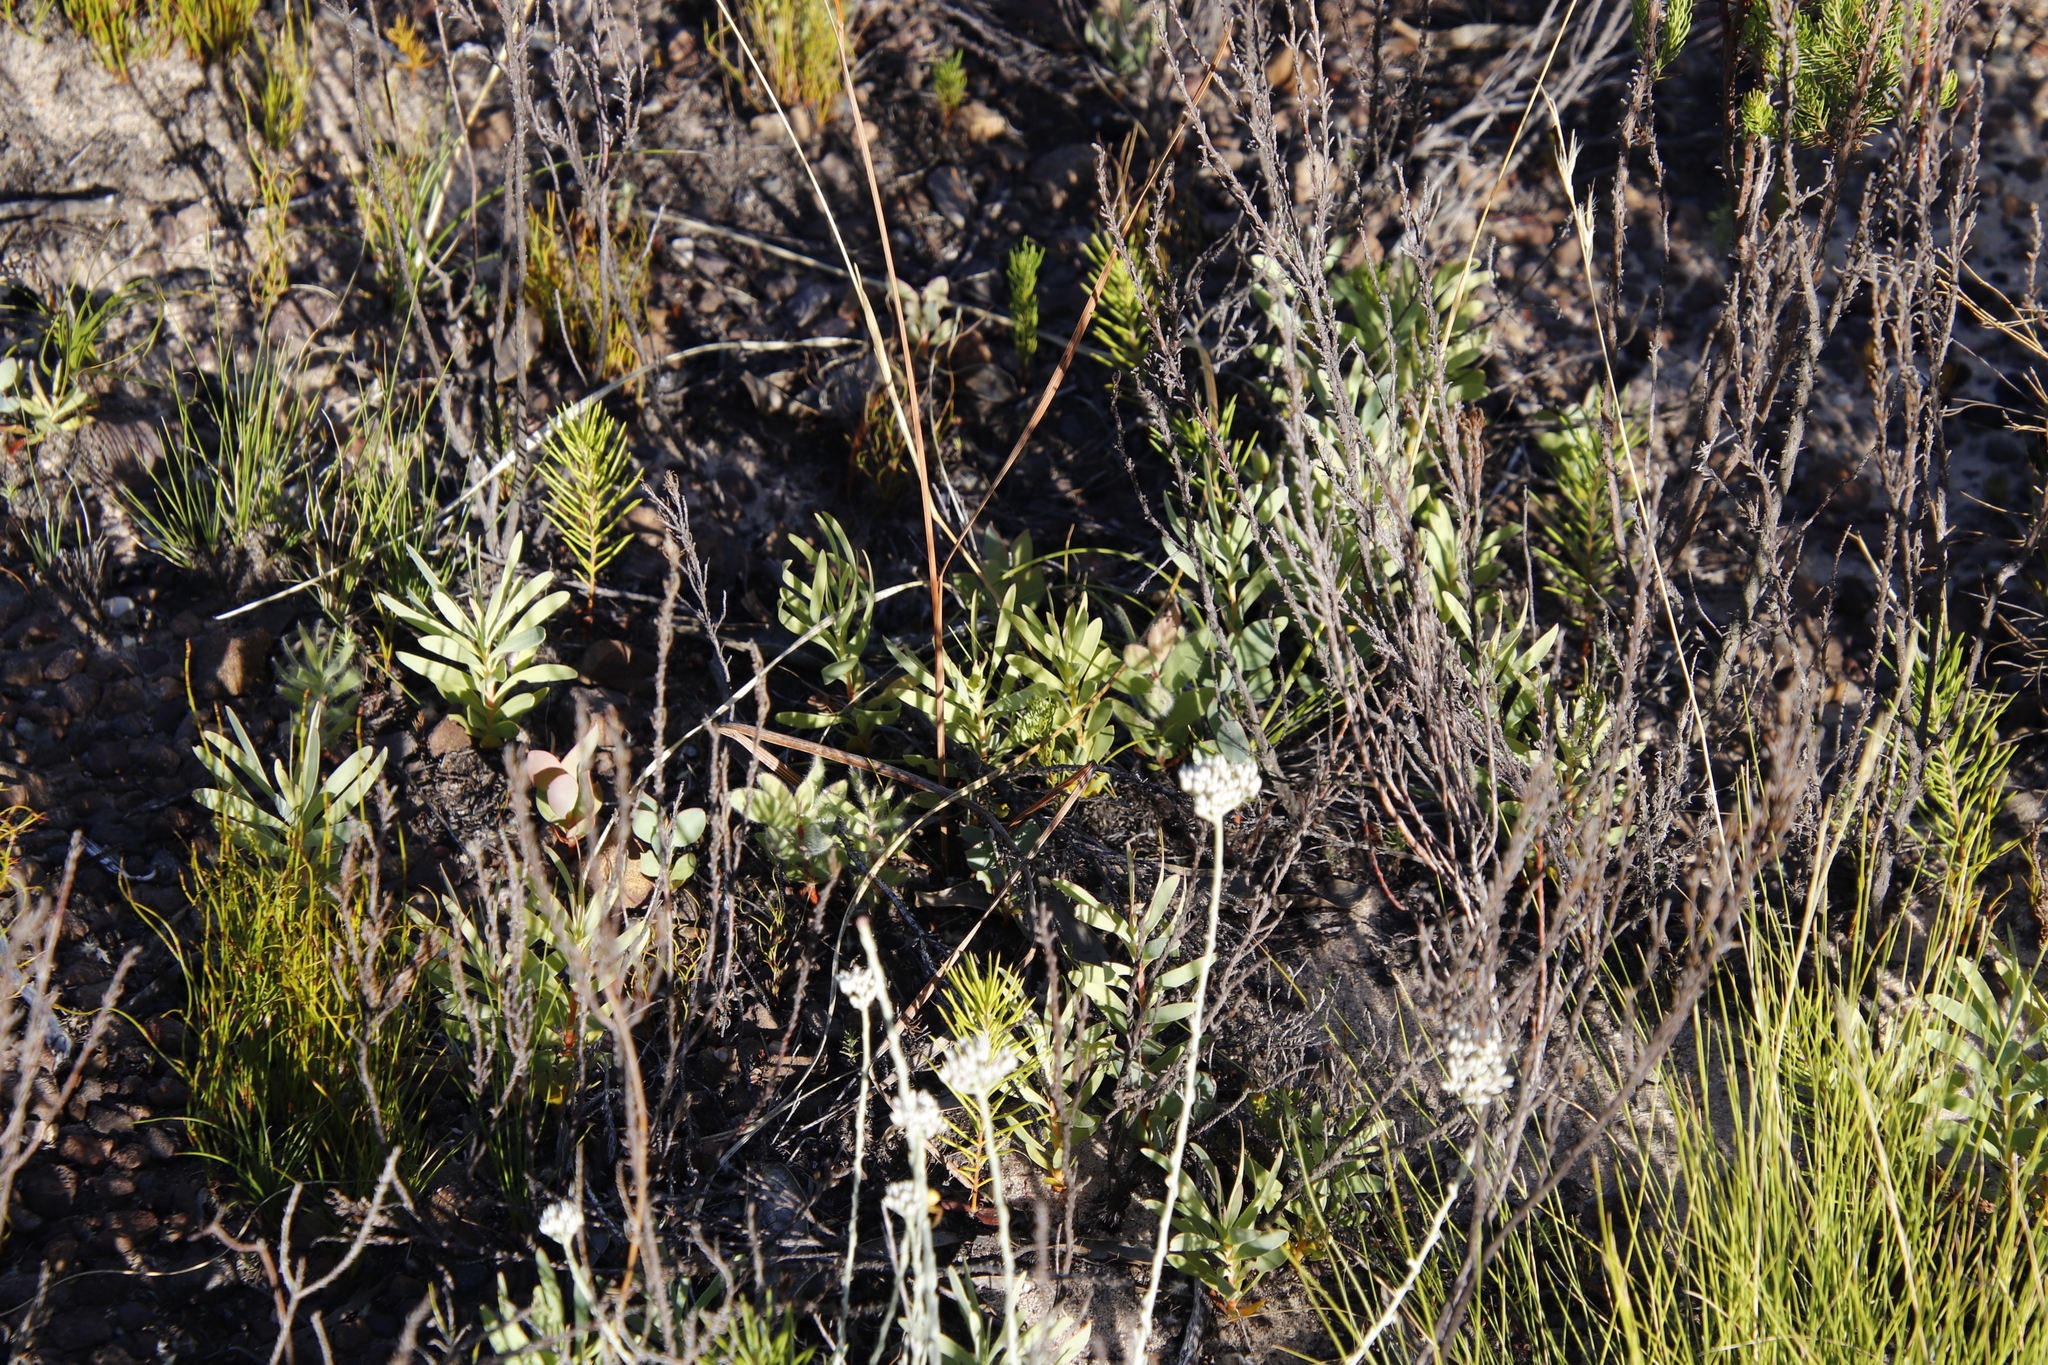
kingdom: Plantae
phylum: Tracheophyta
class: Magnoliopsida
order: Proteales
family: Proteaceae
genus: Protea
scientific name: Protea laurifolia
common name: Grey-leaf sugarbsh
